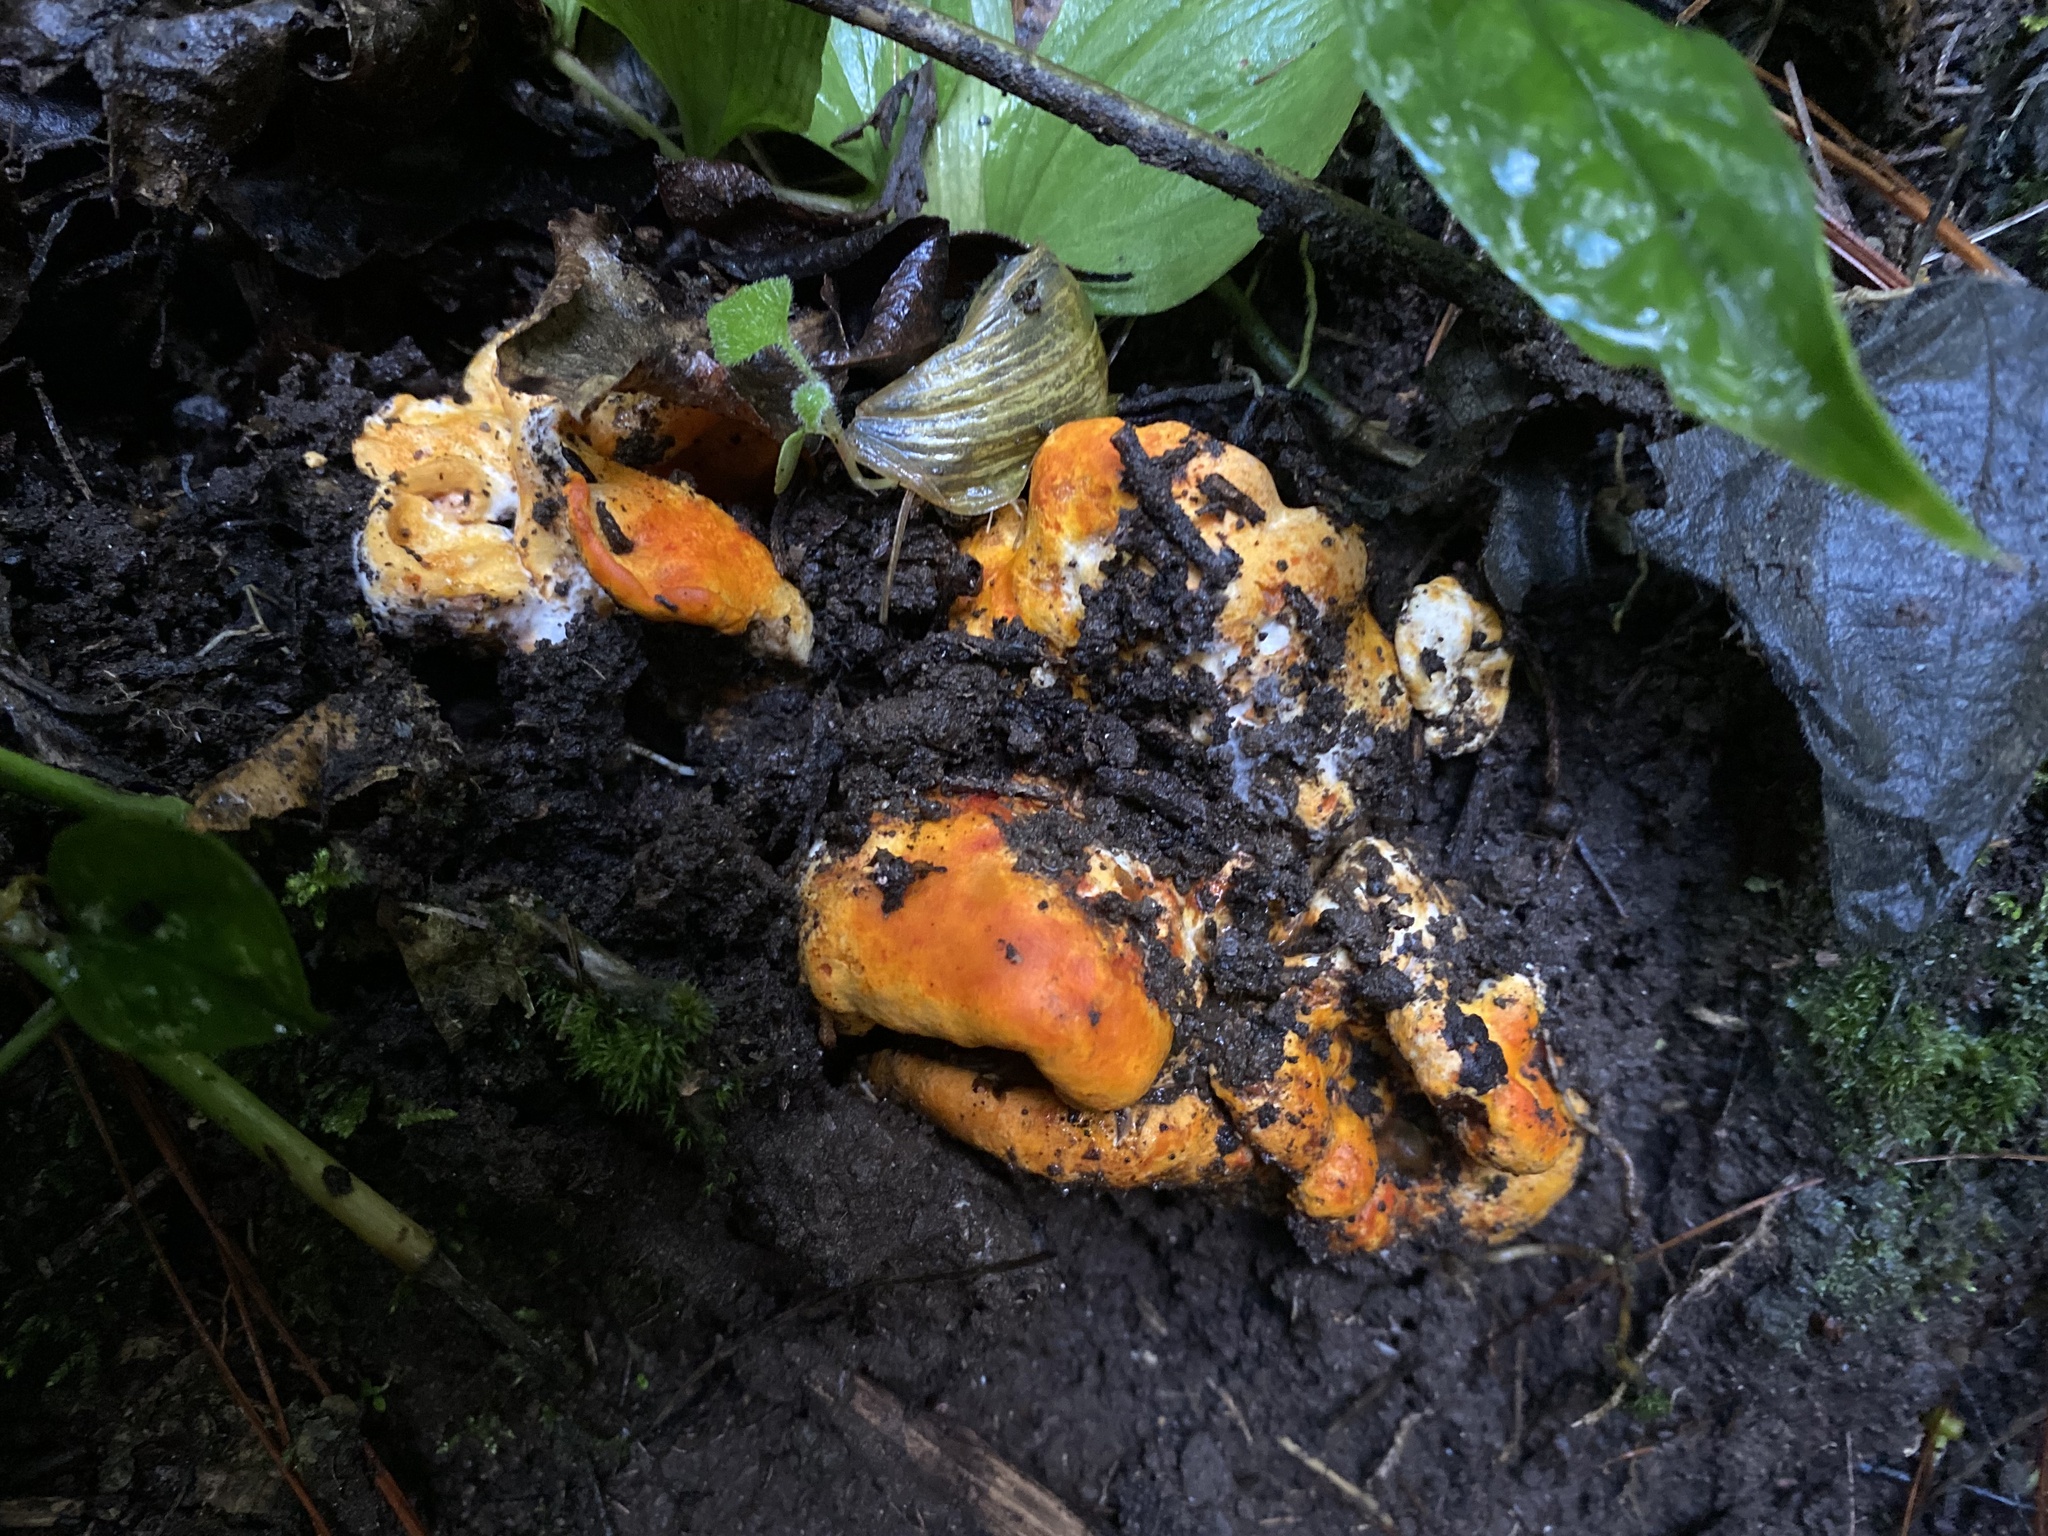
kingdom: Fungi
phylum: Ascomycota
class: Sordariomycetes
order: Hypocreales
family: Hypocreaceae
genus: Hypomyces
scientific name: Hypomyces lactifluorum
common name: Lobster mushroom
